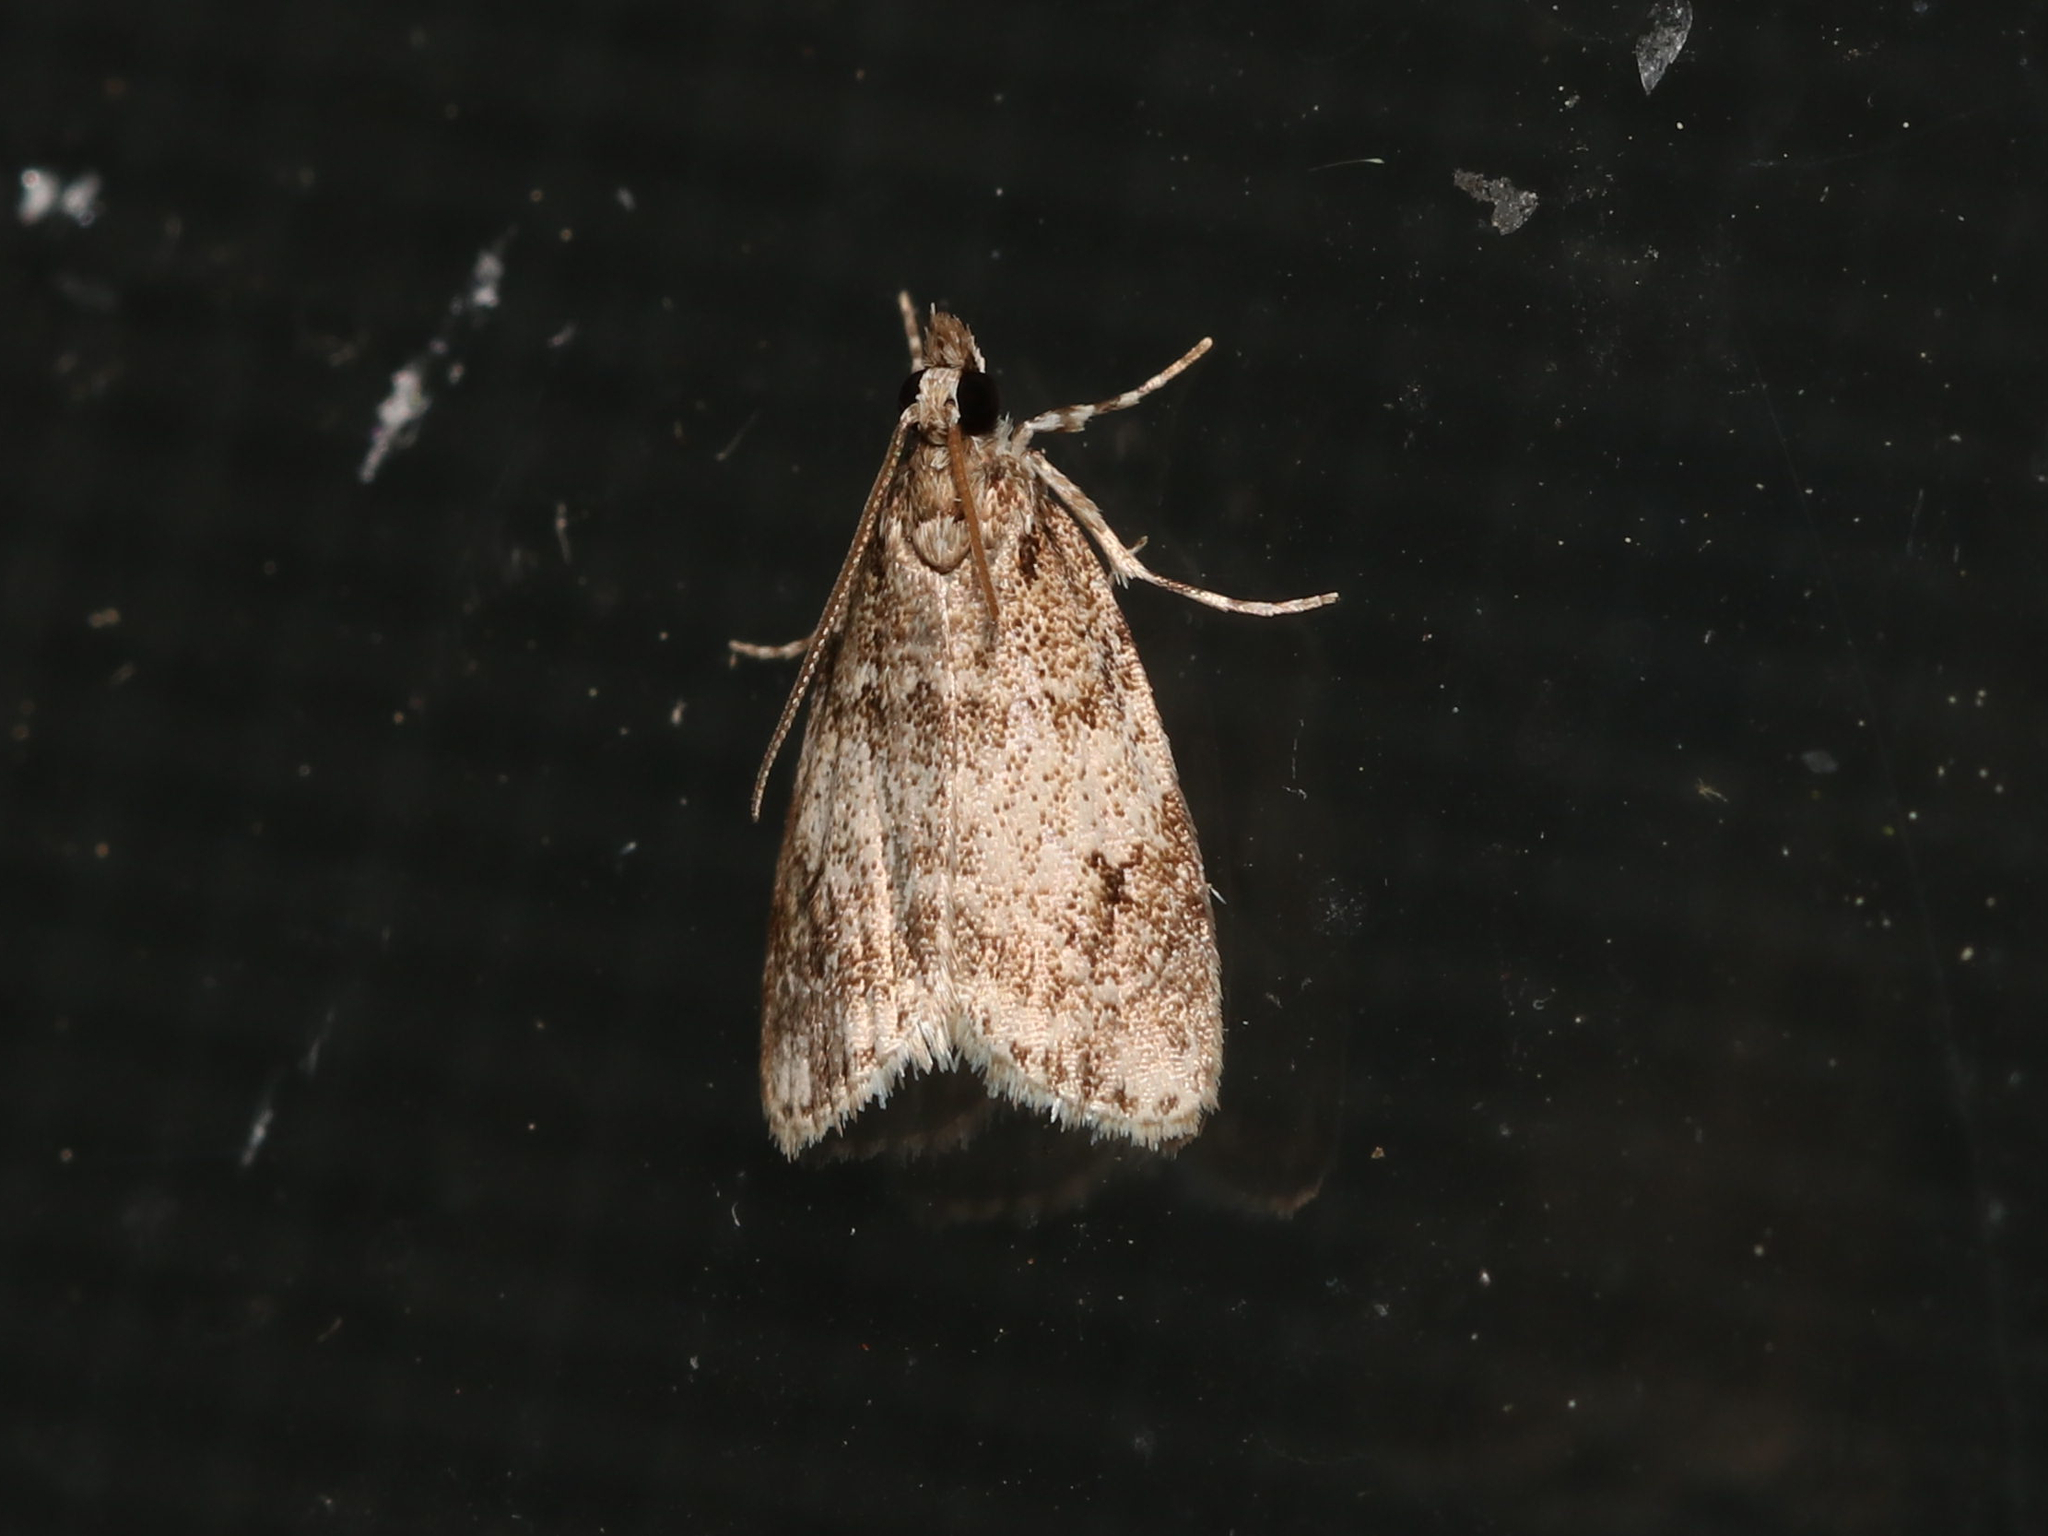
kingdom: Animalia
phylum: Arthropoda
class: Insecta
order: Lepidoptera
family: Crambidae
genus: Scoparia
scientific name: Scoparia cinereomedia
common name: Sooty scoparia moth
